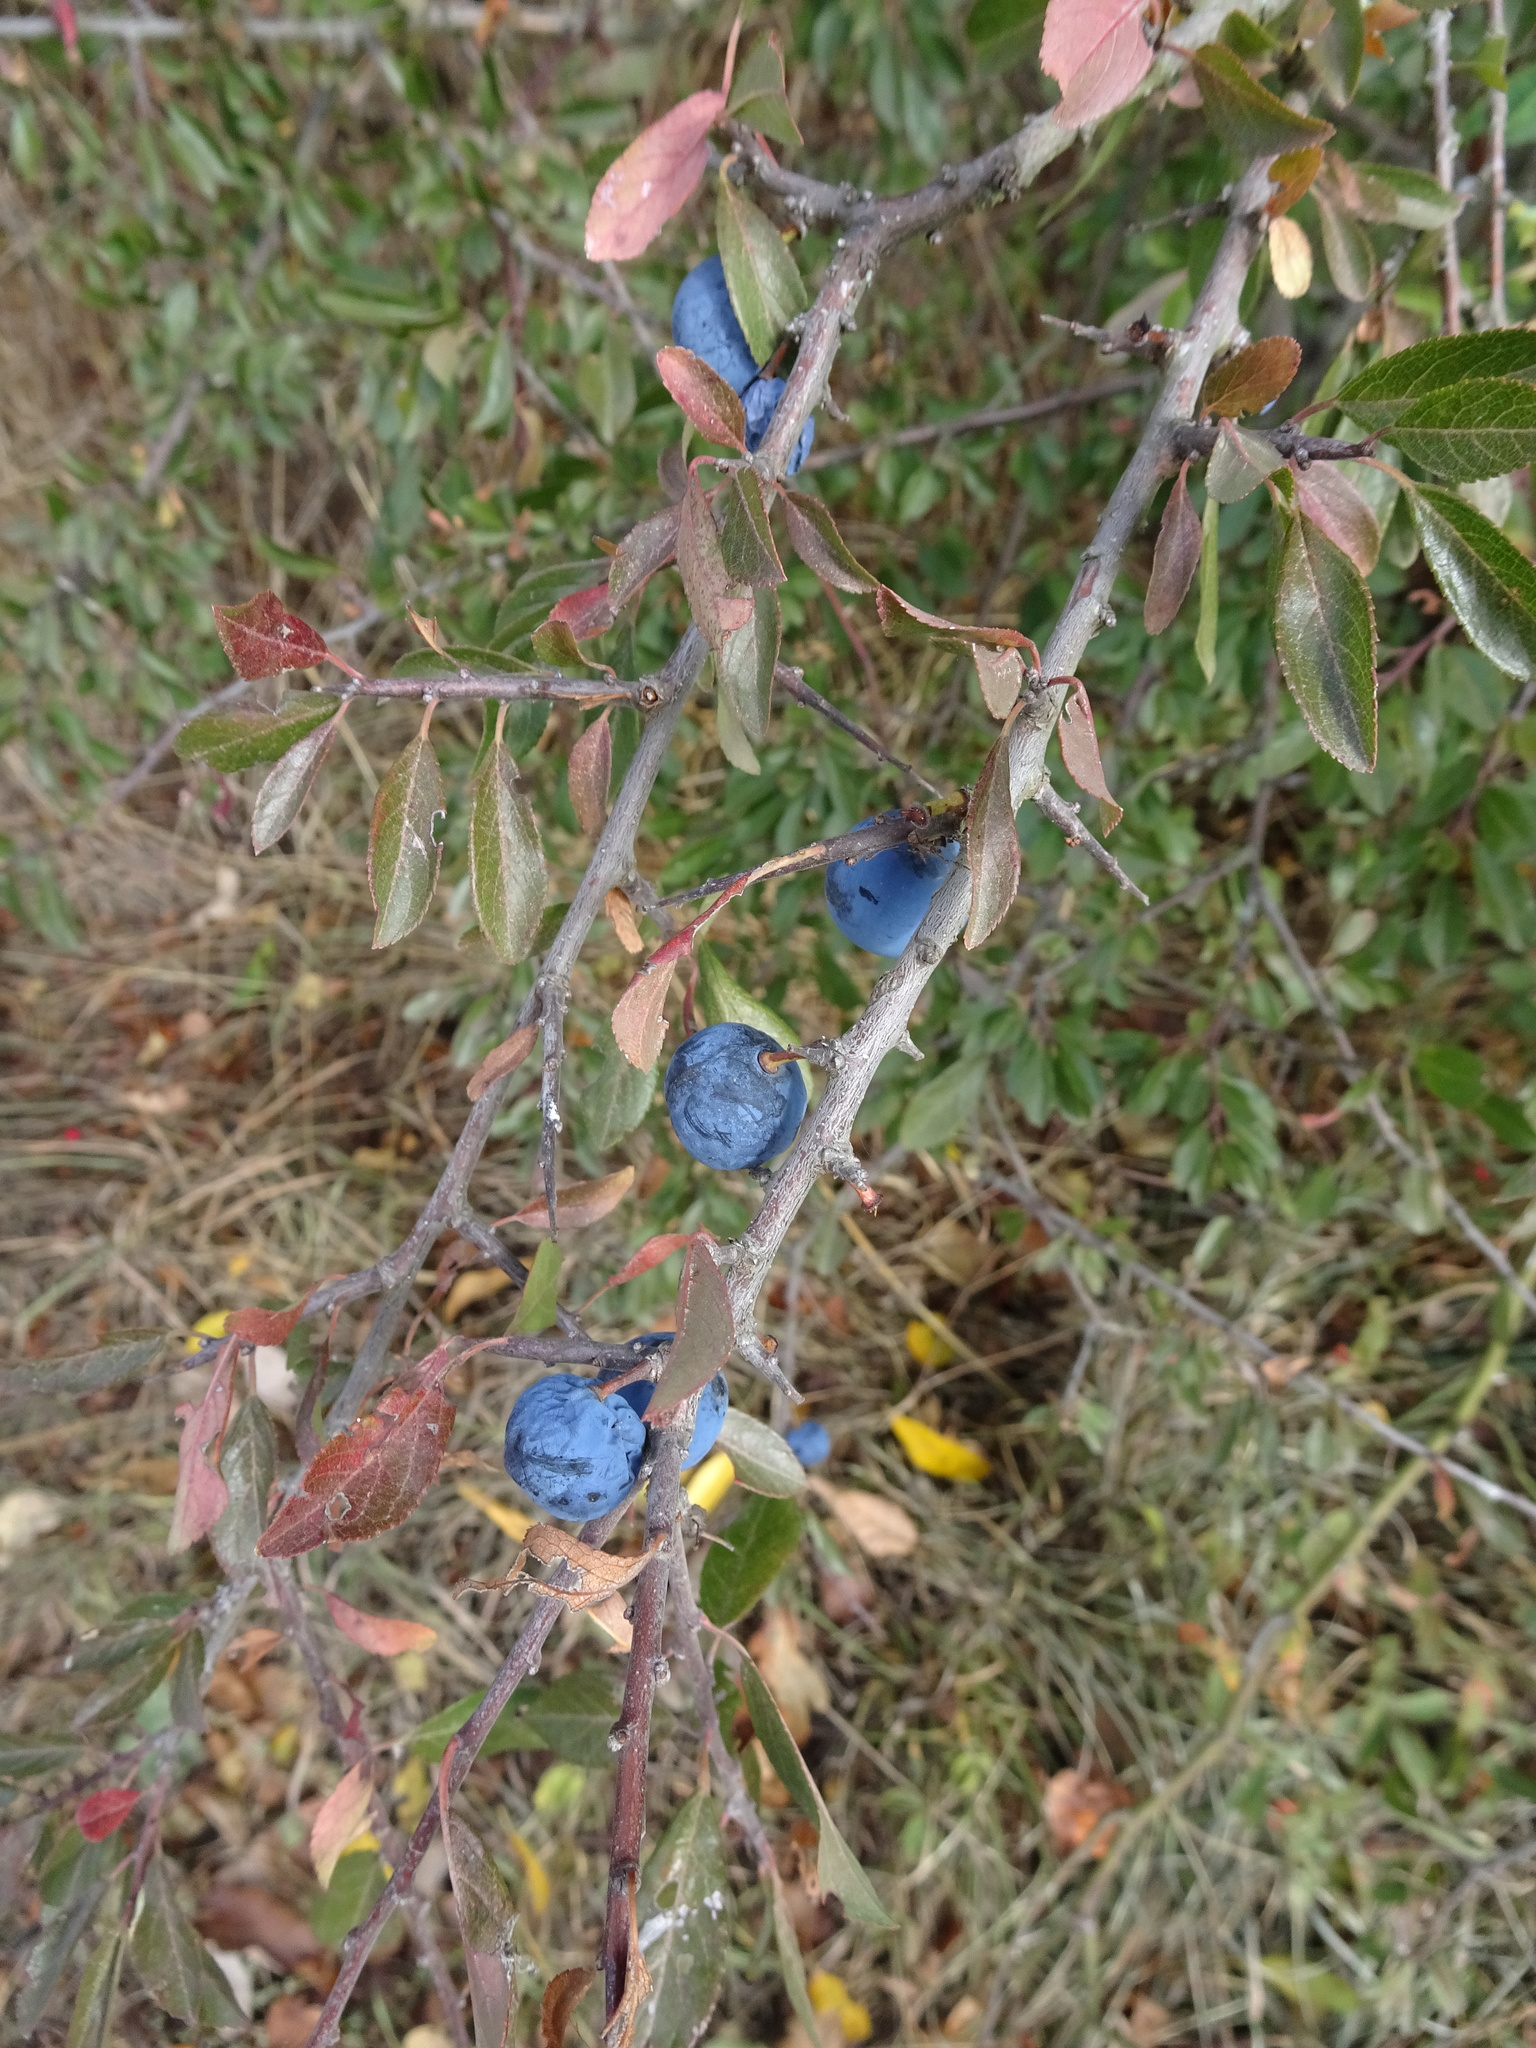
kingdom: Plantae
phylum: Tracheophyta
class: Magnoliopsida
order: Rosales
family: Rosaceae
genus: Prunus
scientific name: Prunus spinosa
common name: Blackthorn
